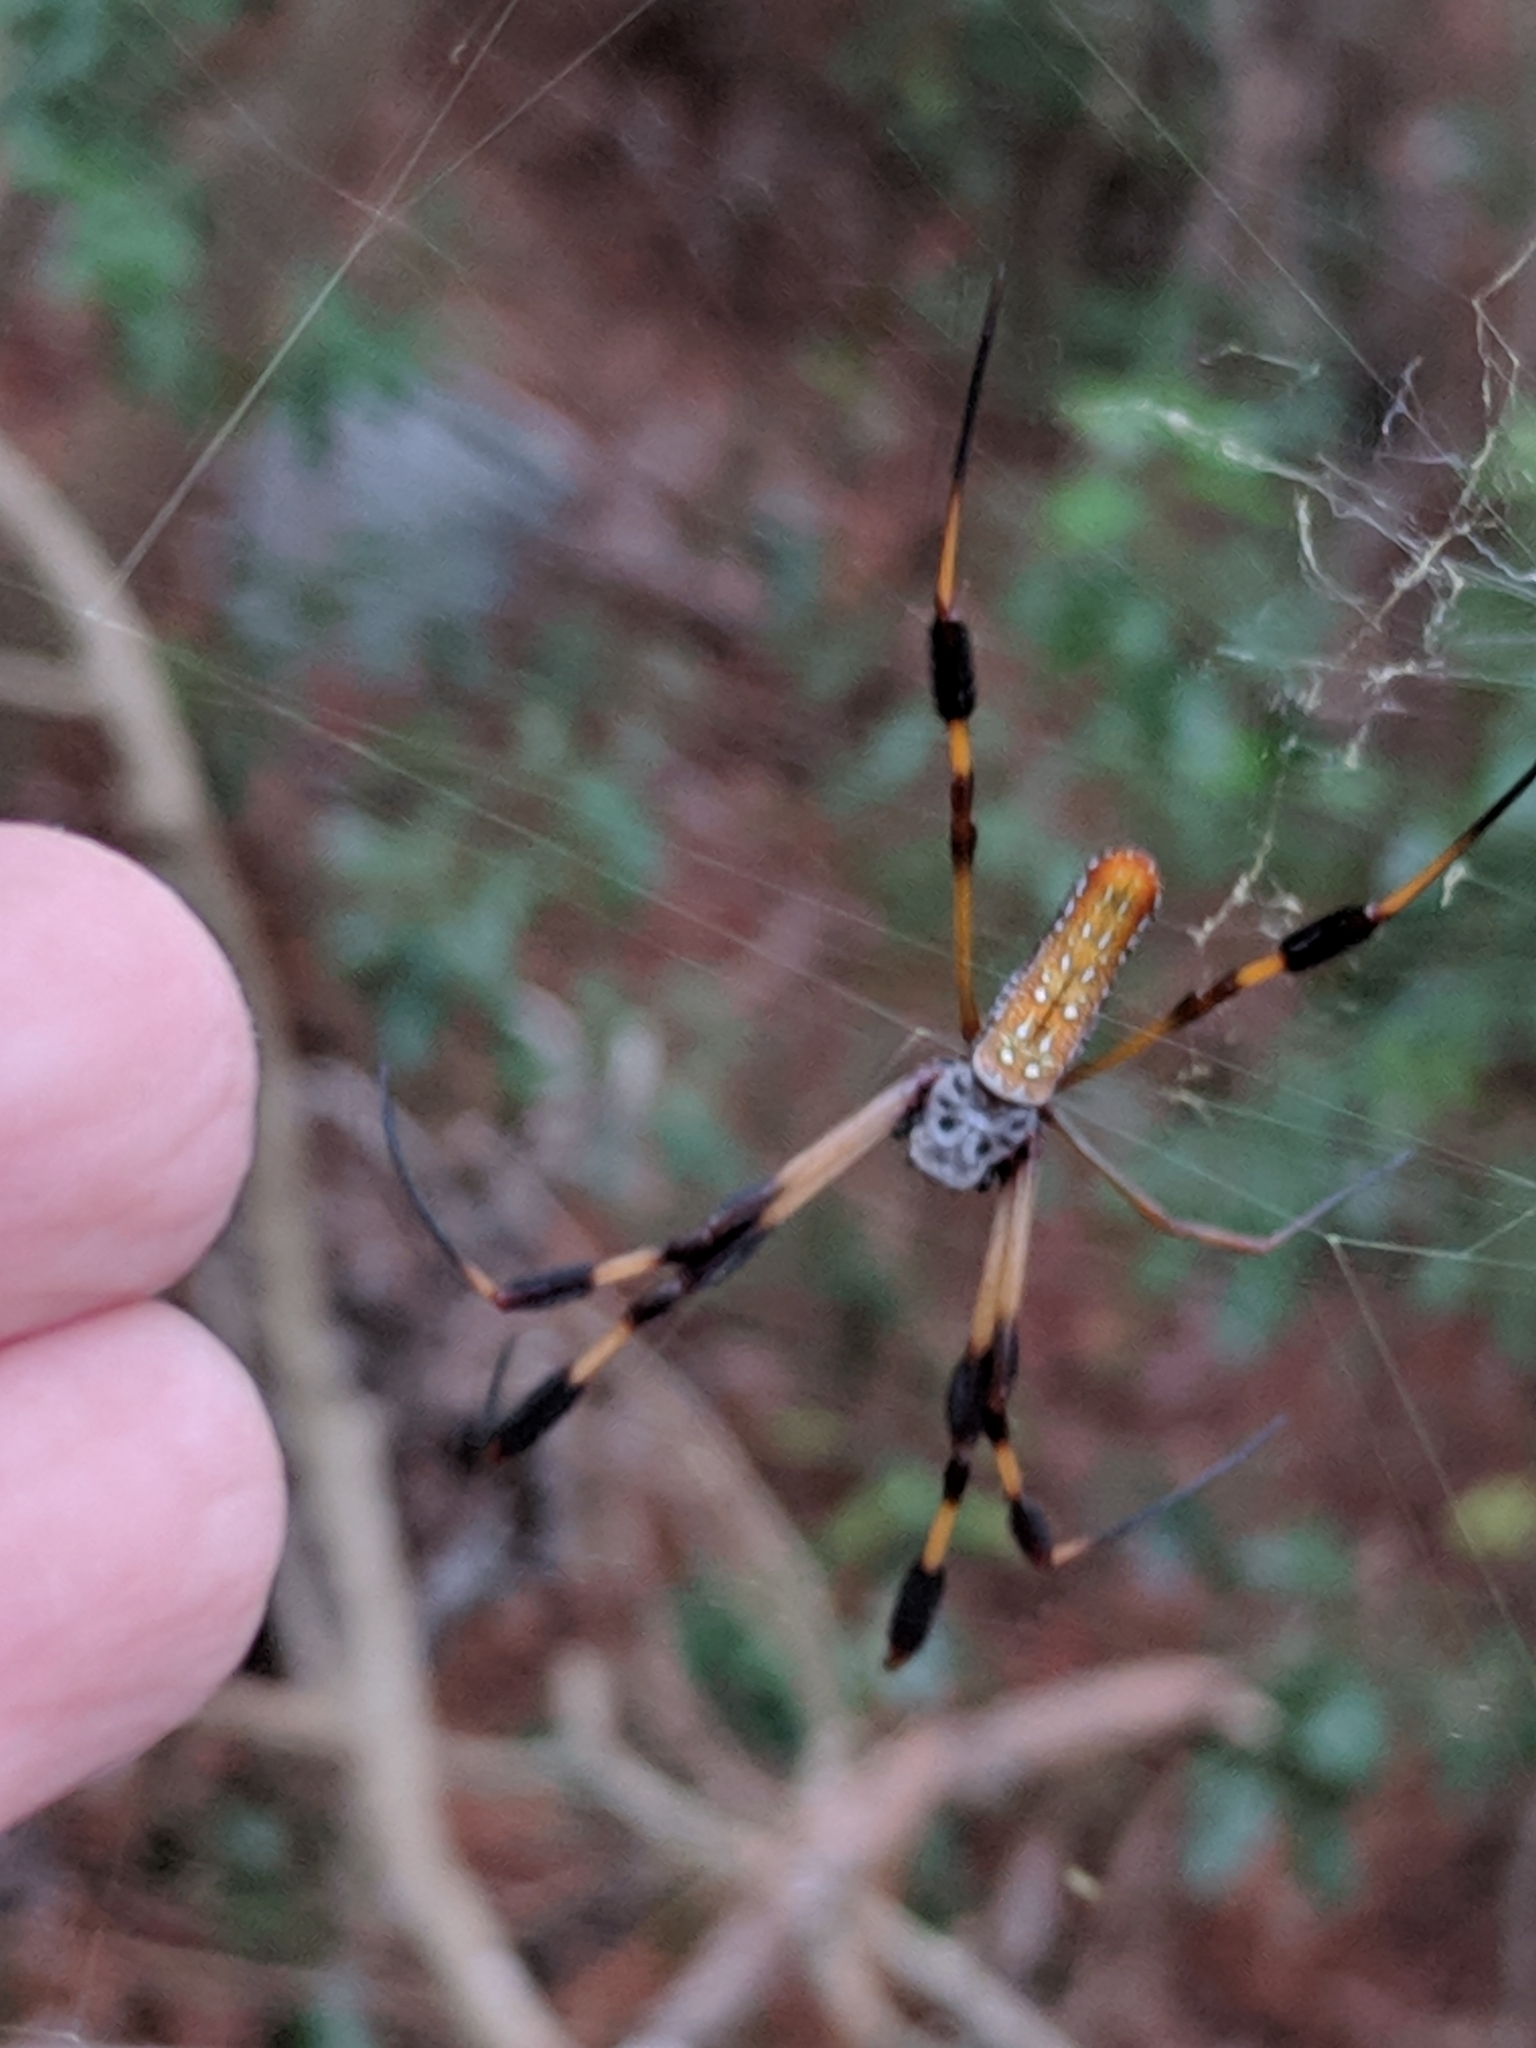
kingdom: Animalia
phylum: Arthropoda
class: Arachnida
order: Araneae
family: Araneidae
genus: Trichonephila
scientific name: Trichonephila clavipes
